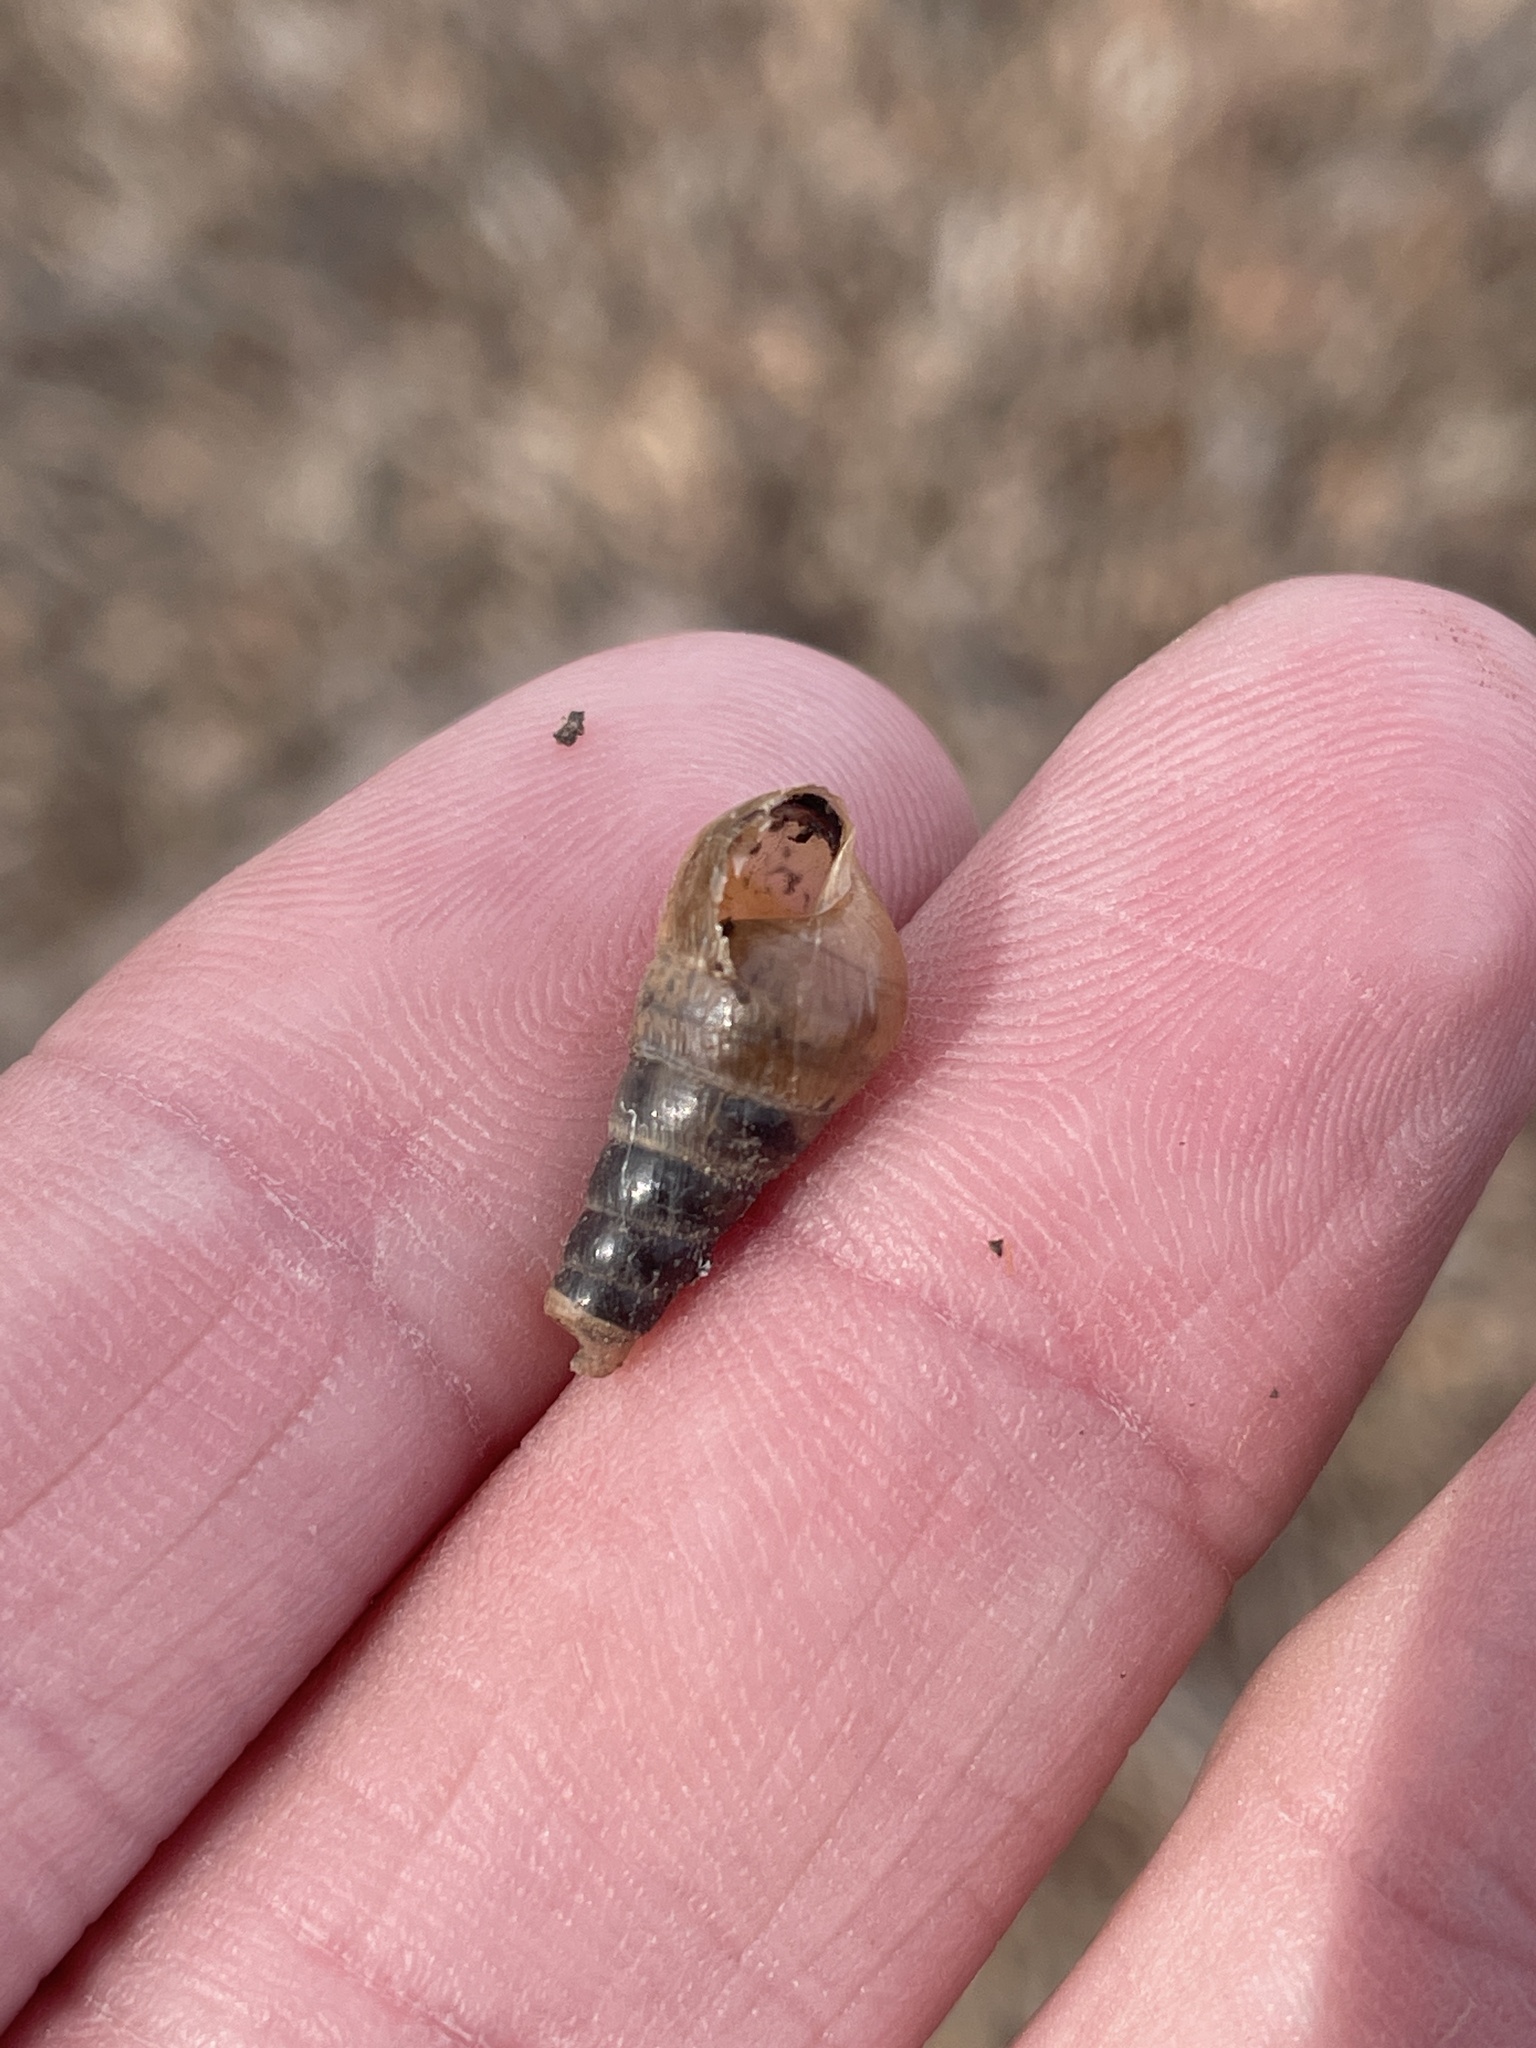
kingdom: Animalia
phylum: Mollusca
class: Gastropoda
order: Stylommatophora
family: Achatinidae
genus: Rumina
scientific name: Rumina decollata
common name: Decollate snail
